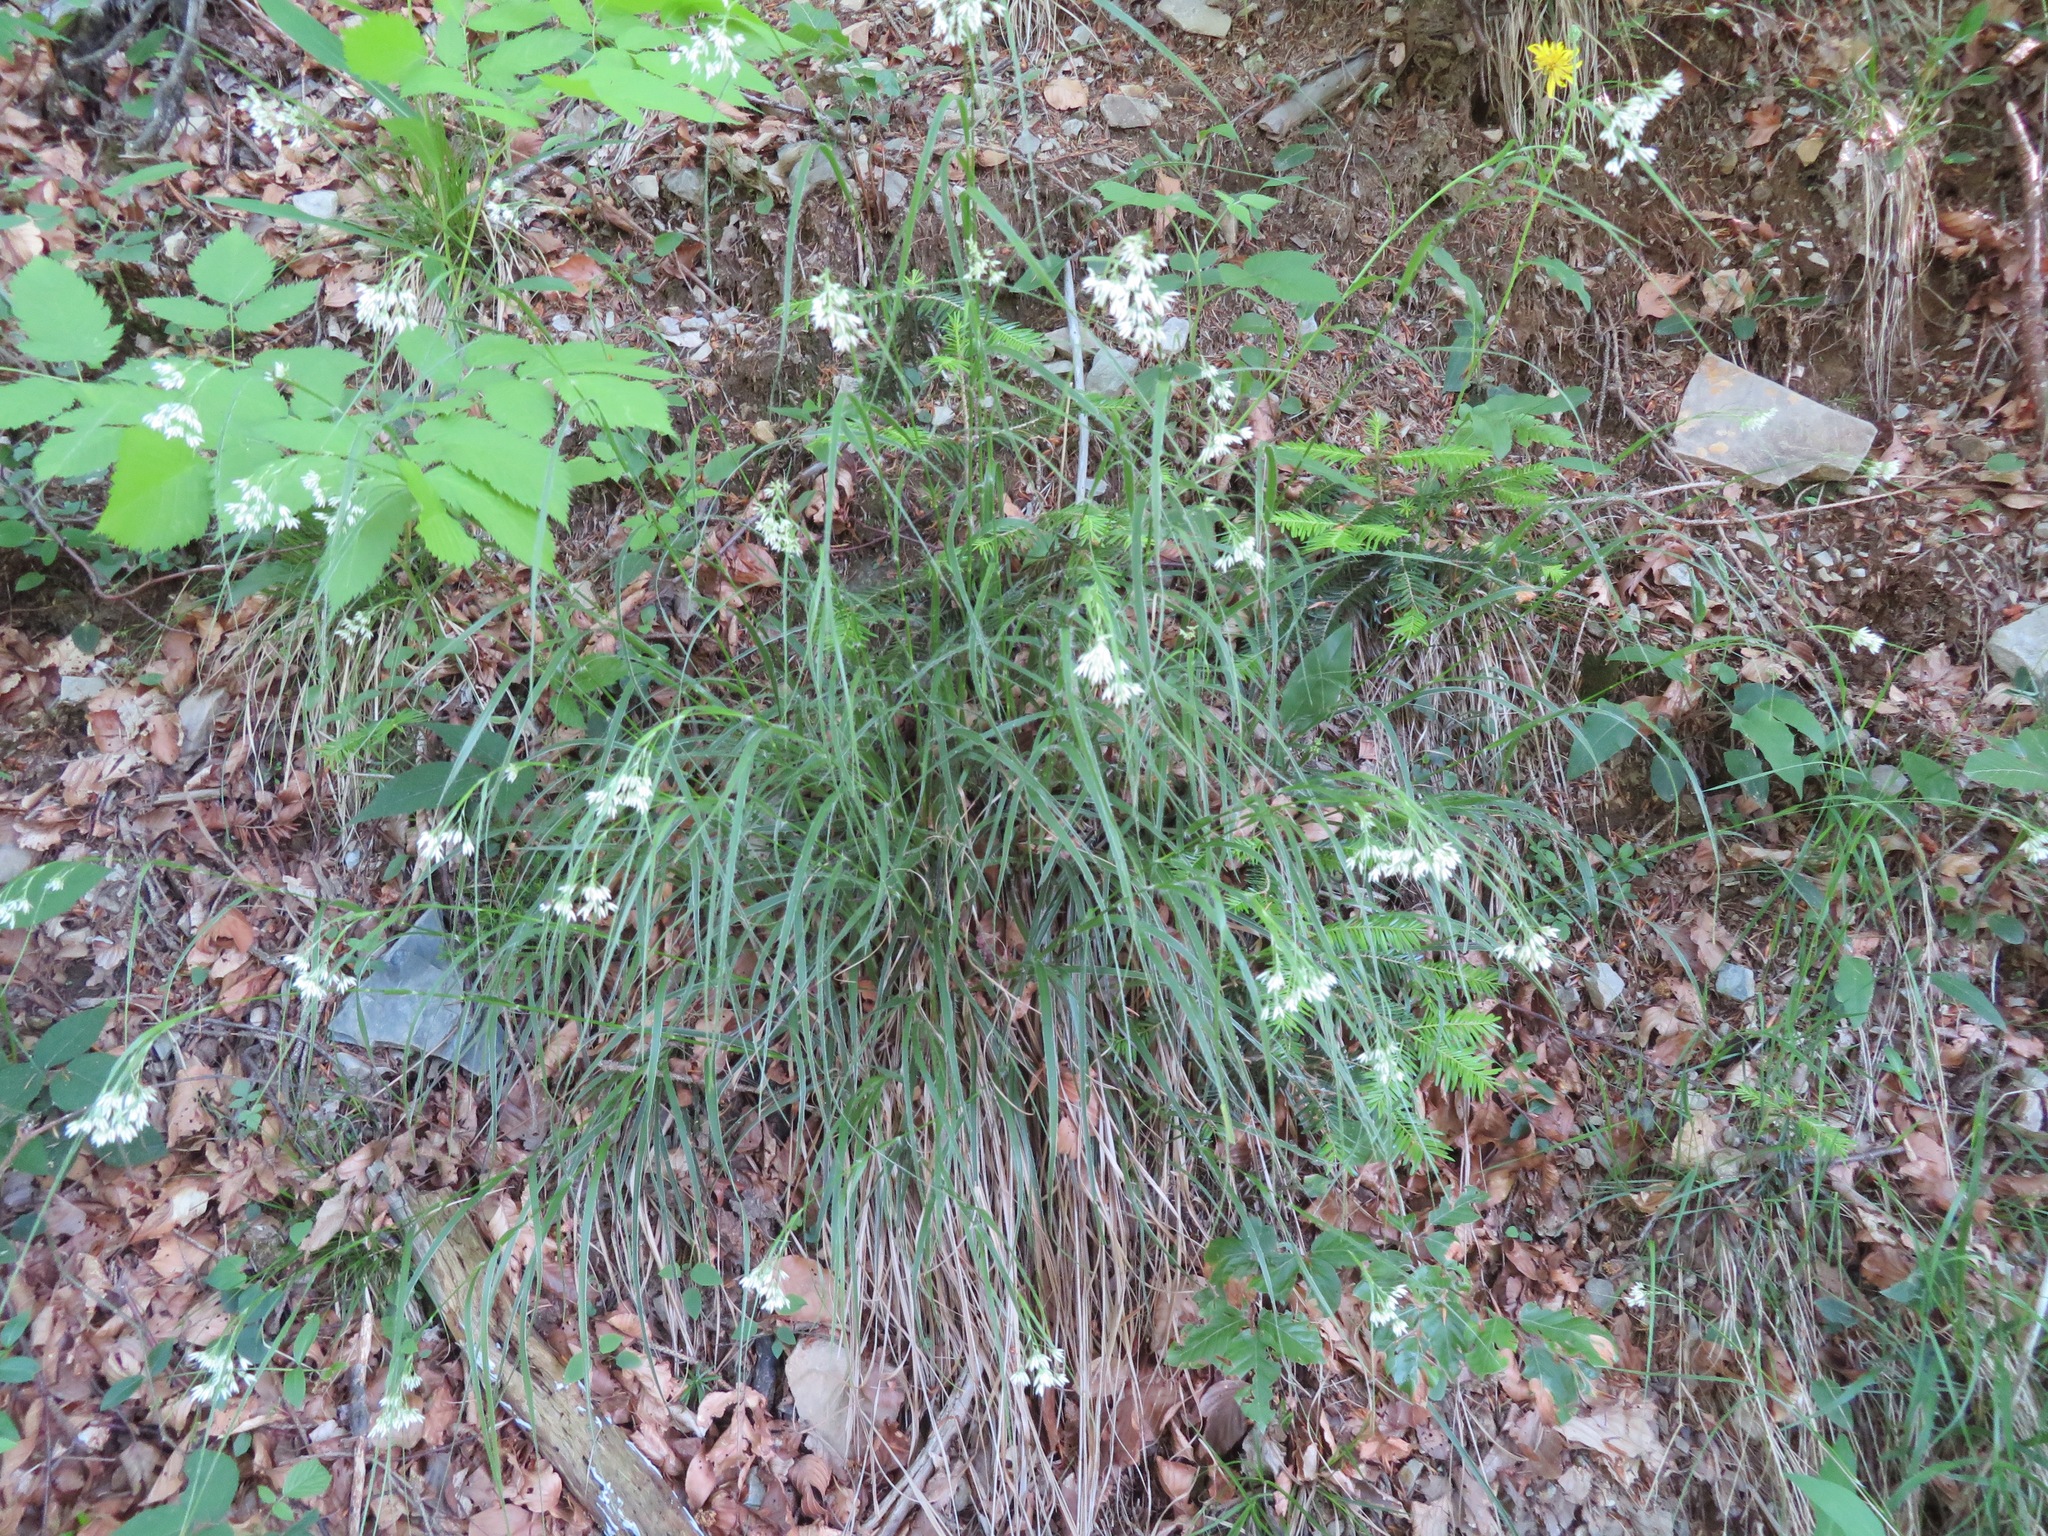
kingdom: Plantae
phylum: Tracheophyta
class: Liliopsida
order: Poales
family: Juncaceae
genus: Luzula
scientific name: Luzula nivea
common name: Snow-white wood-rush
